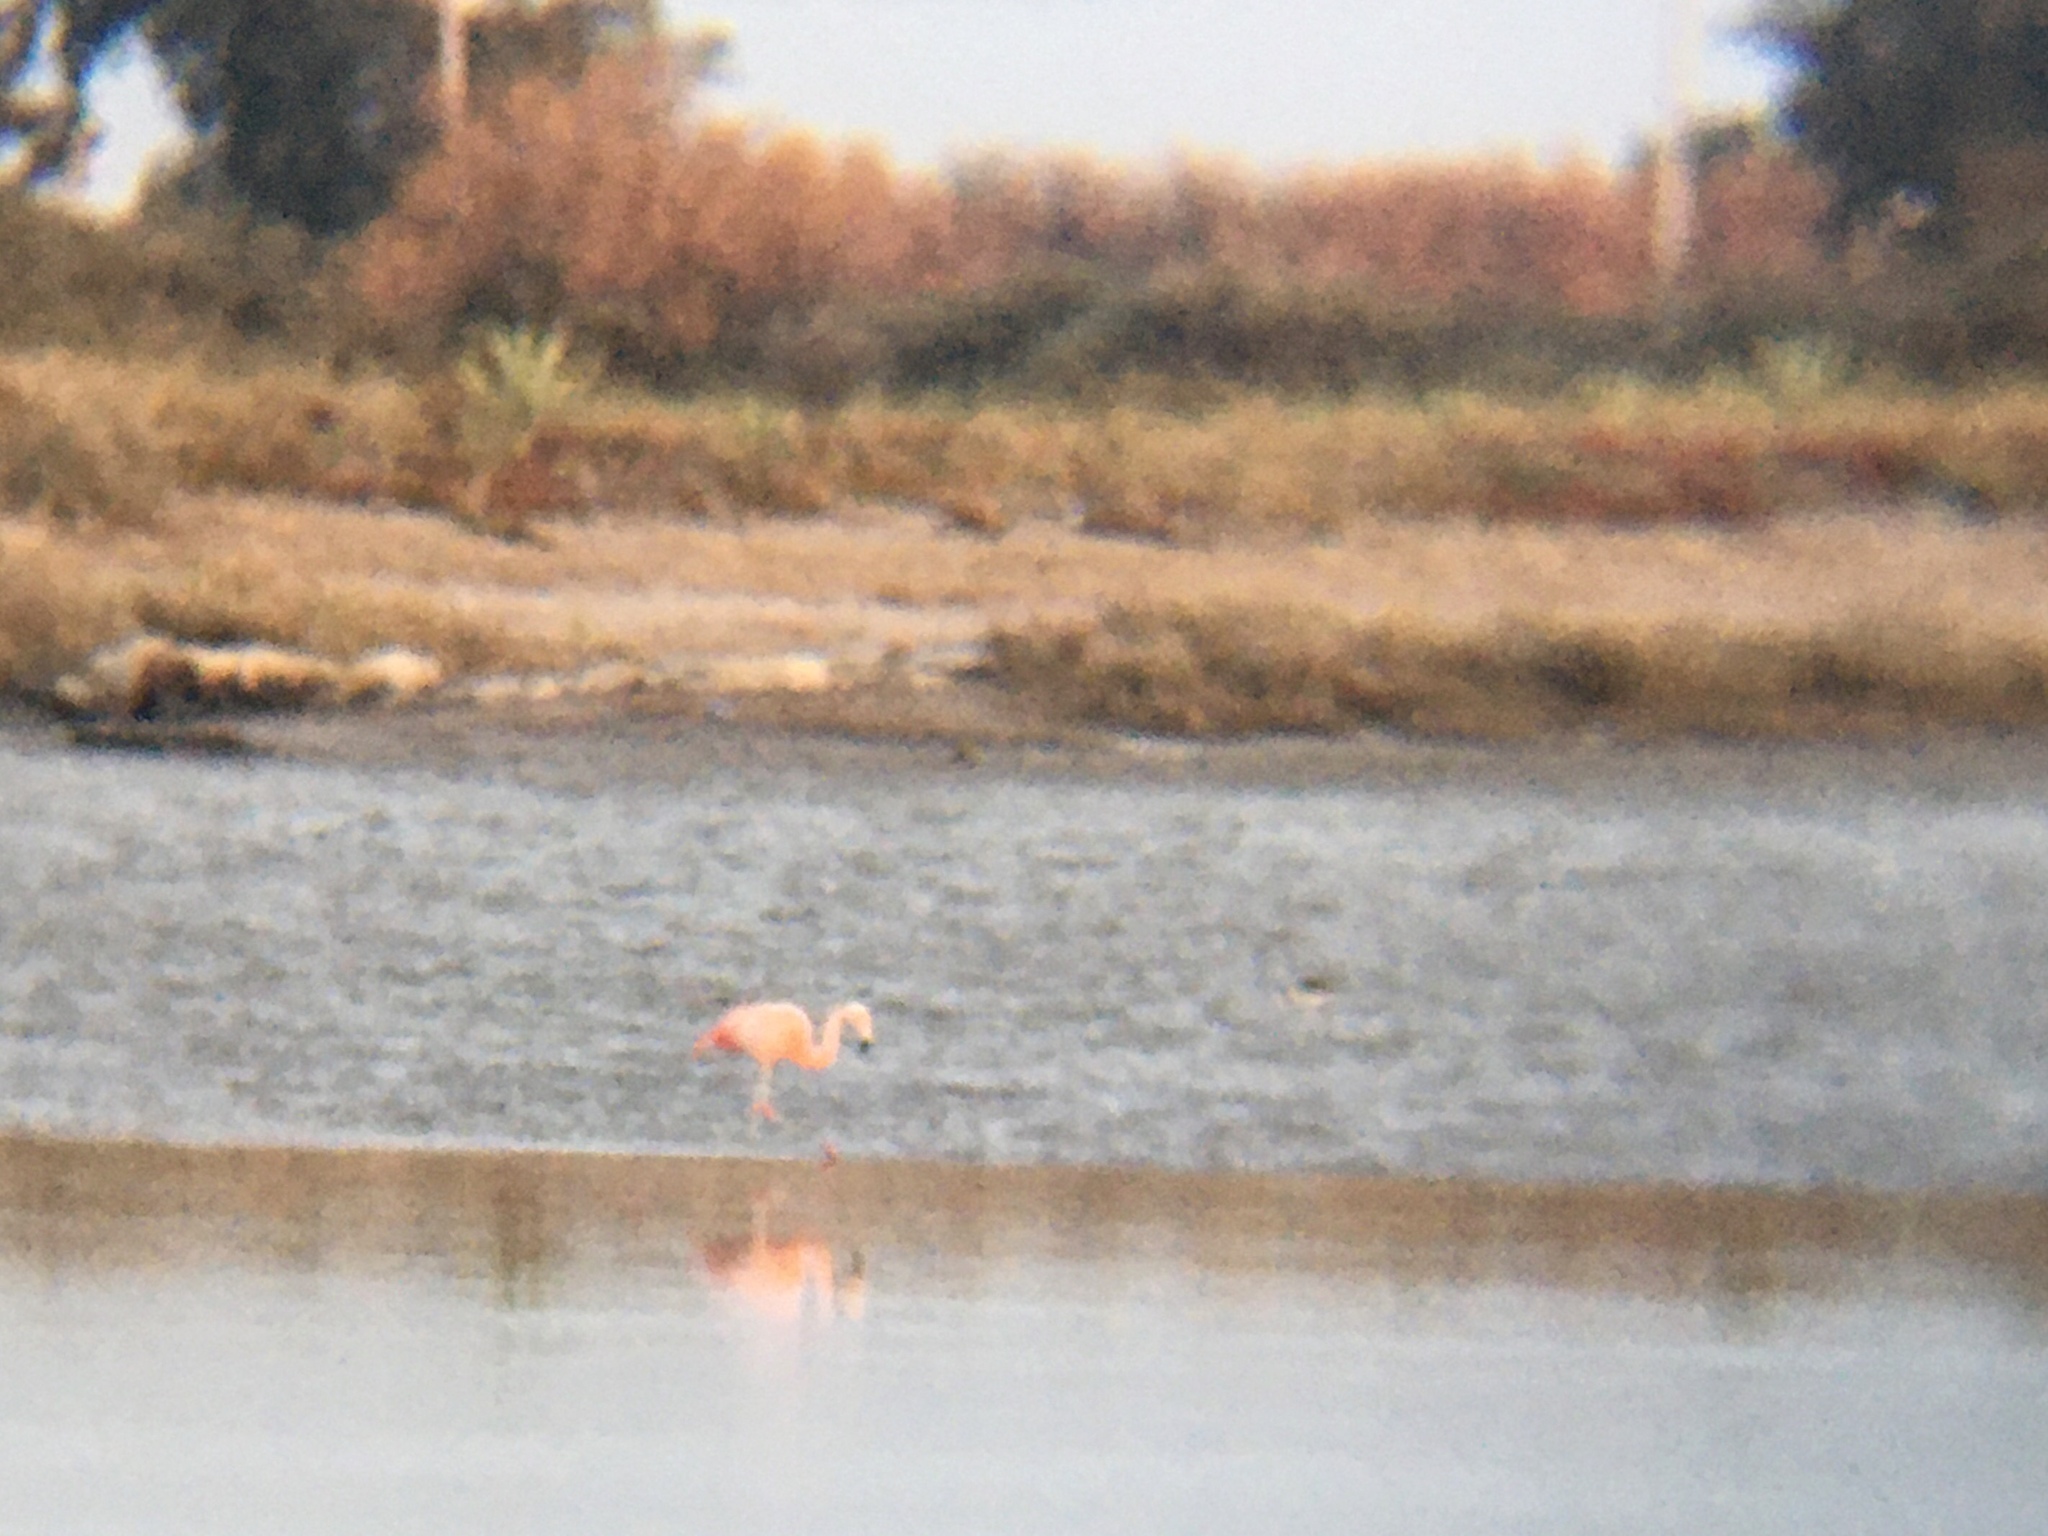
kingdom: Animalia
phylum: Chordata
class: Aves
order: Phoenicopteriformes
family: Phoenicopteridae
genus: Phoenicopterus
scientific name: Phoenicopterus chilensis
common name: Chilean flamingo
